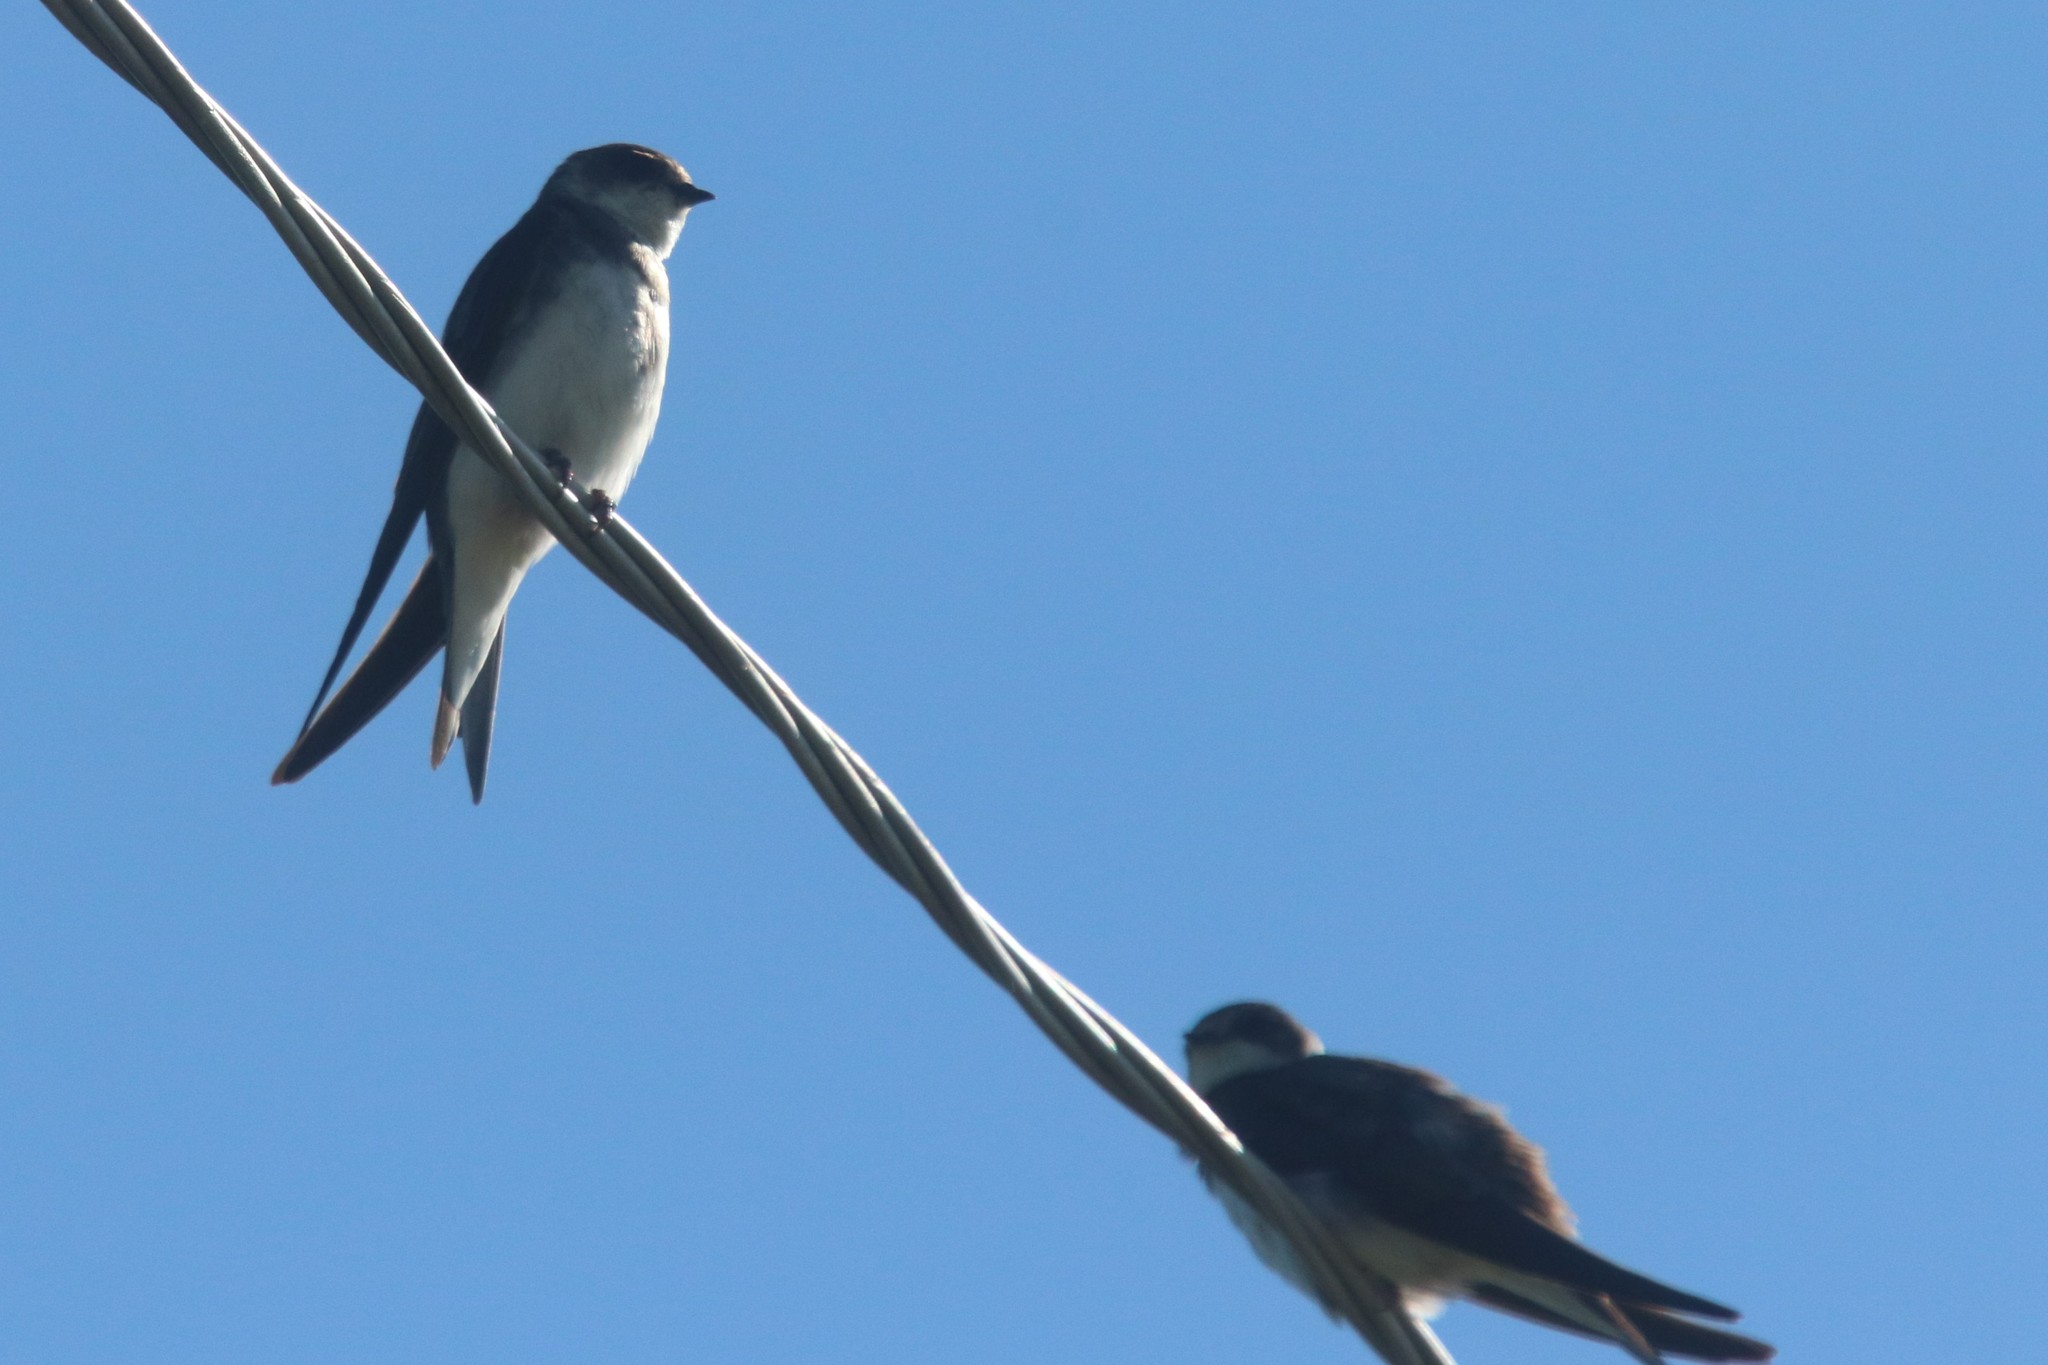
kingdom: Animalia
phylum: Chordata
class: Aves
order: Passeriformes
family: Hirundinidae
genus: Riparia
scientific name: Riparia riparia
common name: Sand martin
